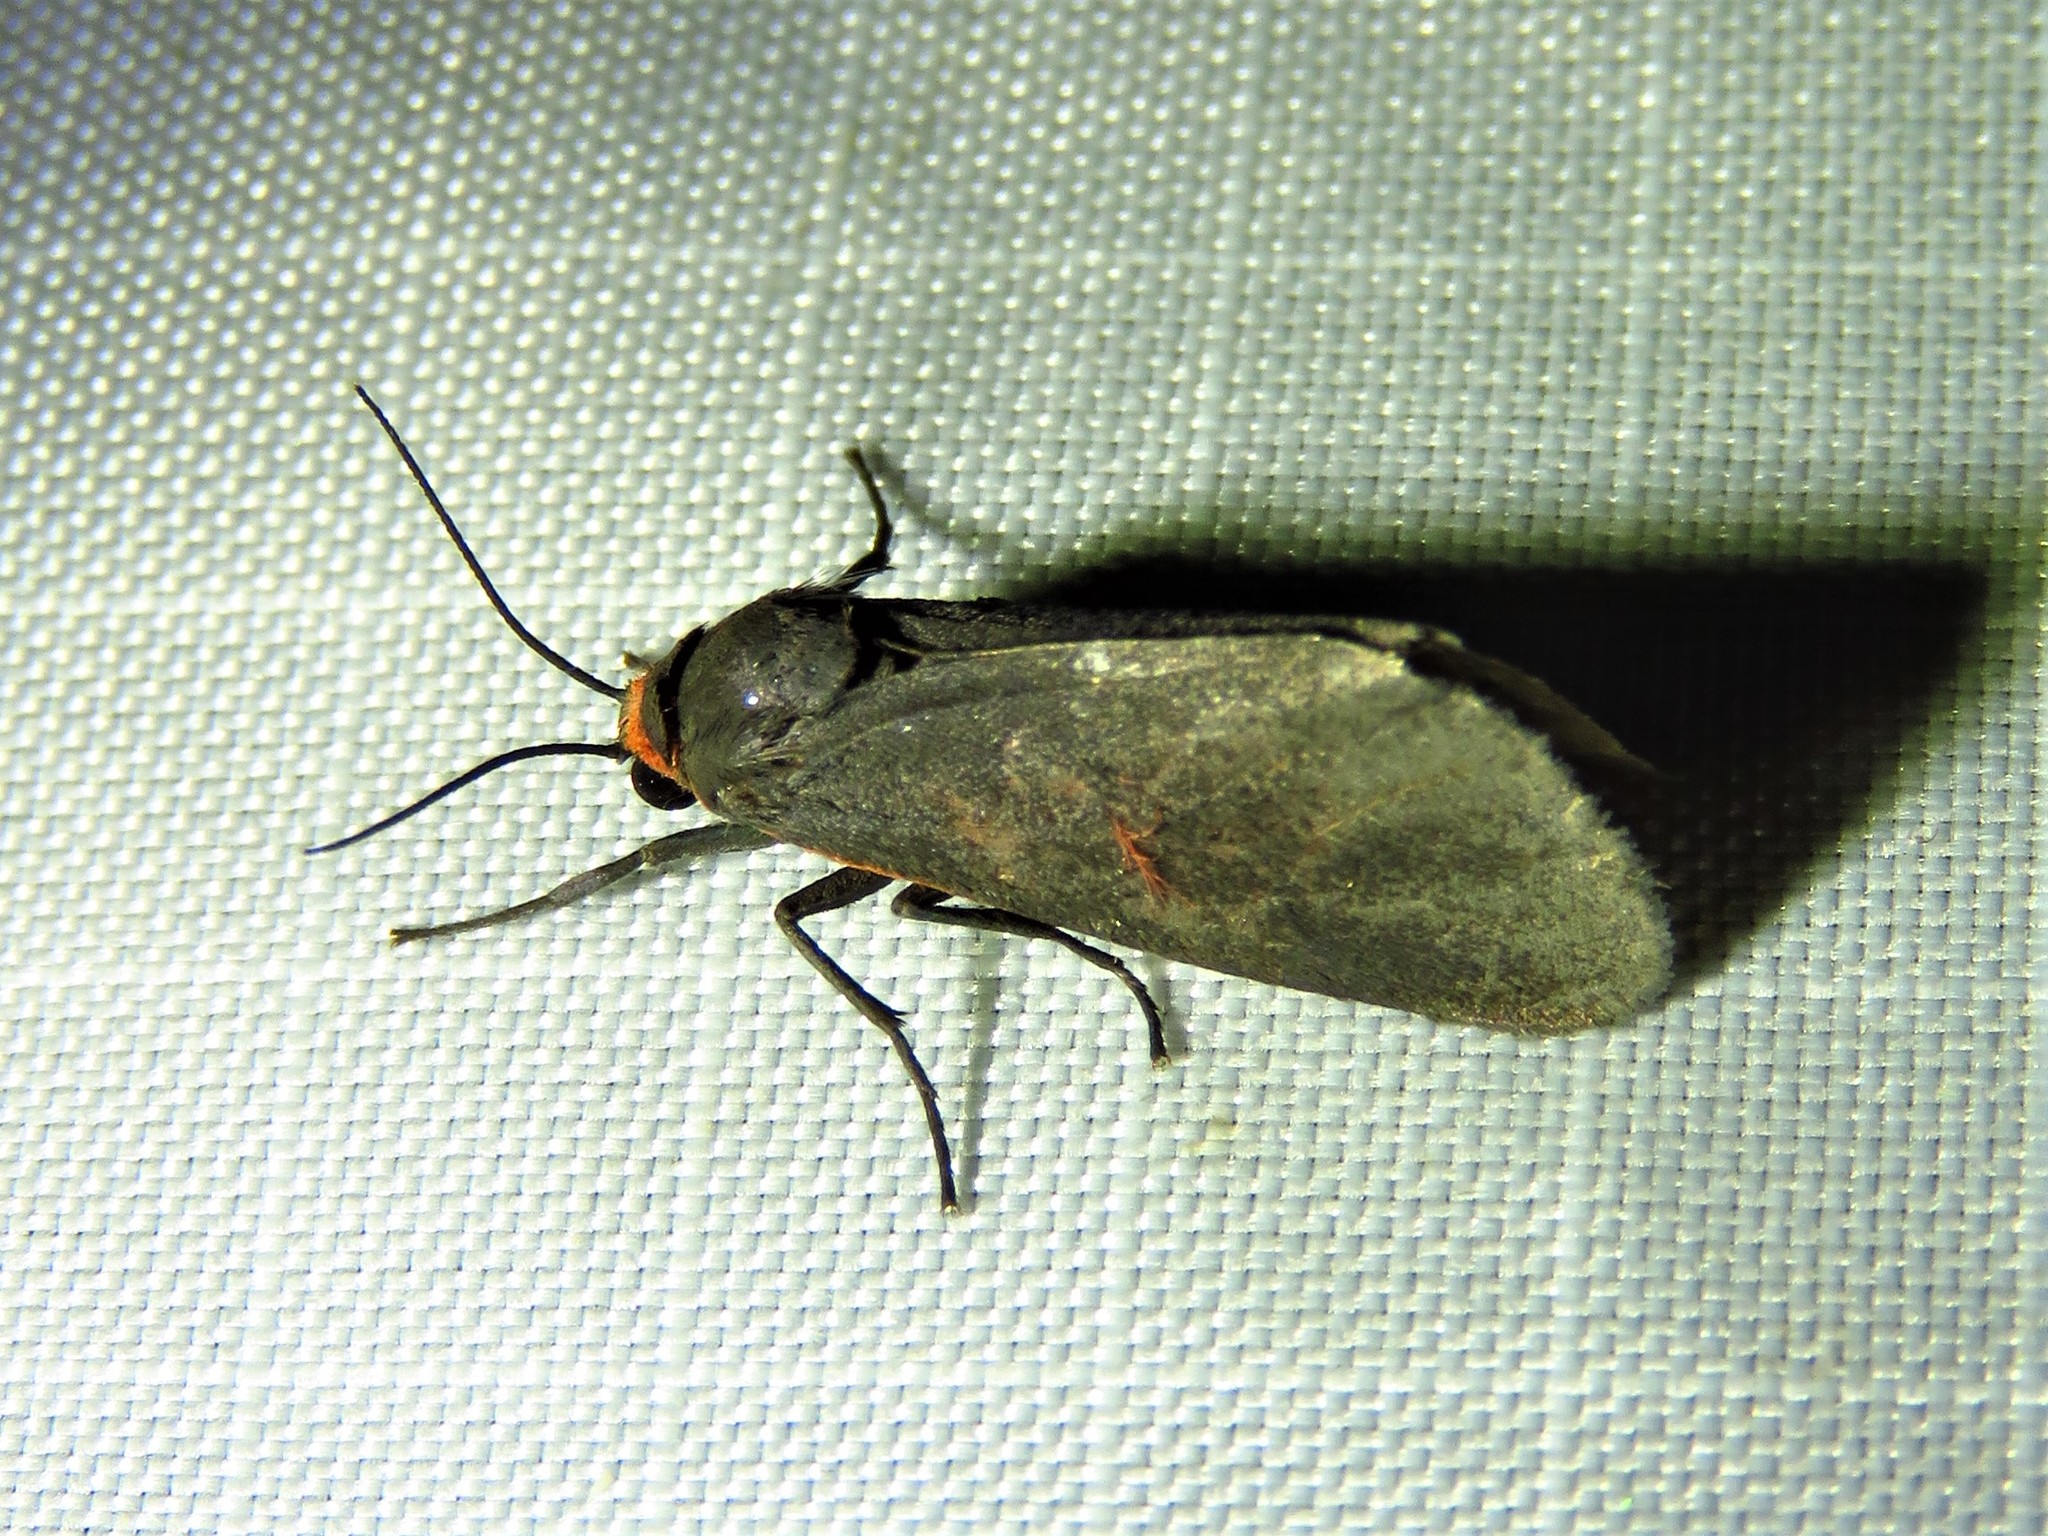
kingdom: Animalia
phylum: Arthropoda
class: Insecta
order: Lepidoptera
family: Erebidae
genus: Virbia
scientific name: Virbia laeta
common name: Joyful holomelina moth
